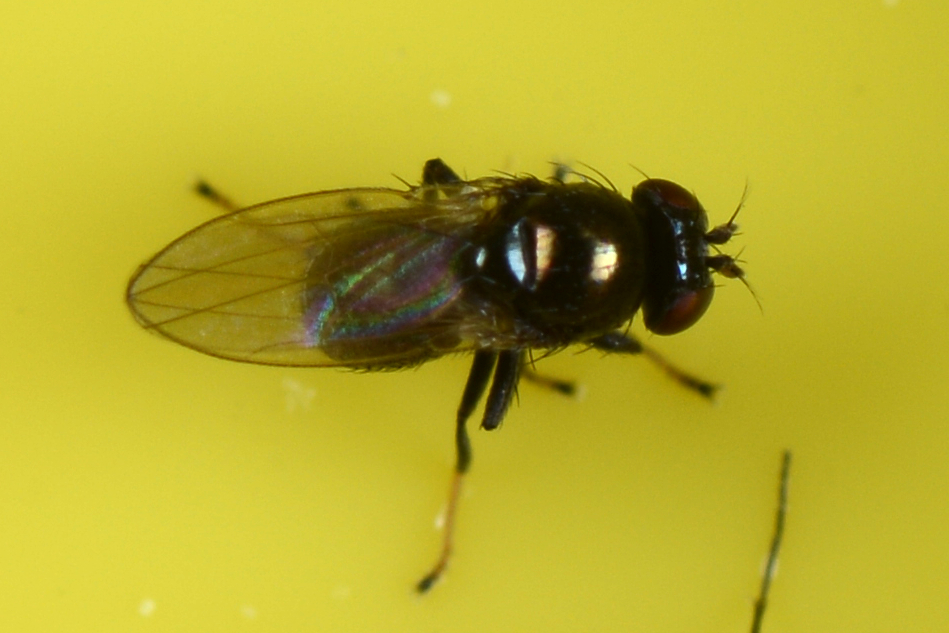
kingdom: Animalia
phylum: Arthropoda
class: Insecta
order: Diptera
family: Ephydridae
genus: Diasemocera
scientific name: Diasemocera metallica
